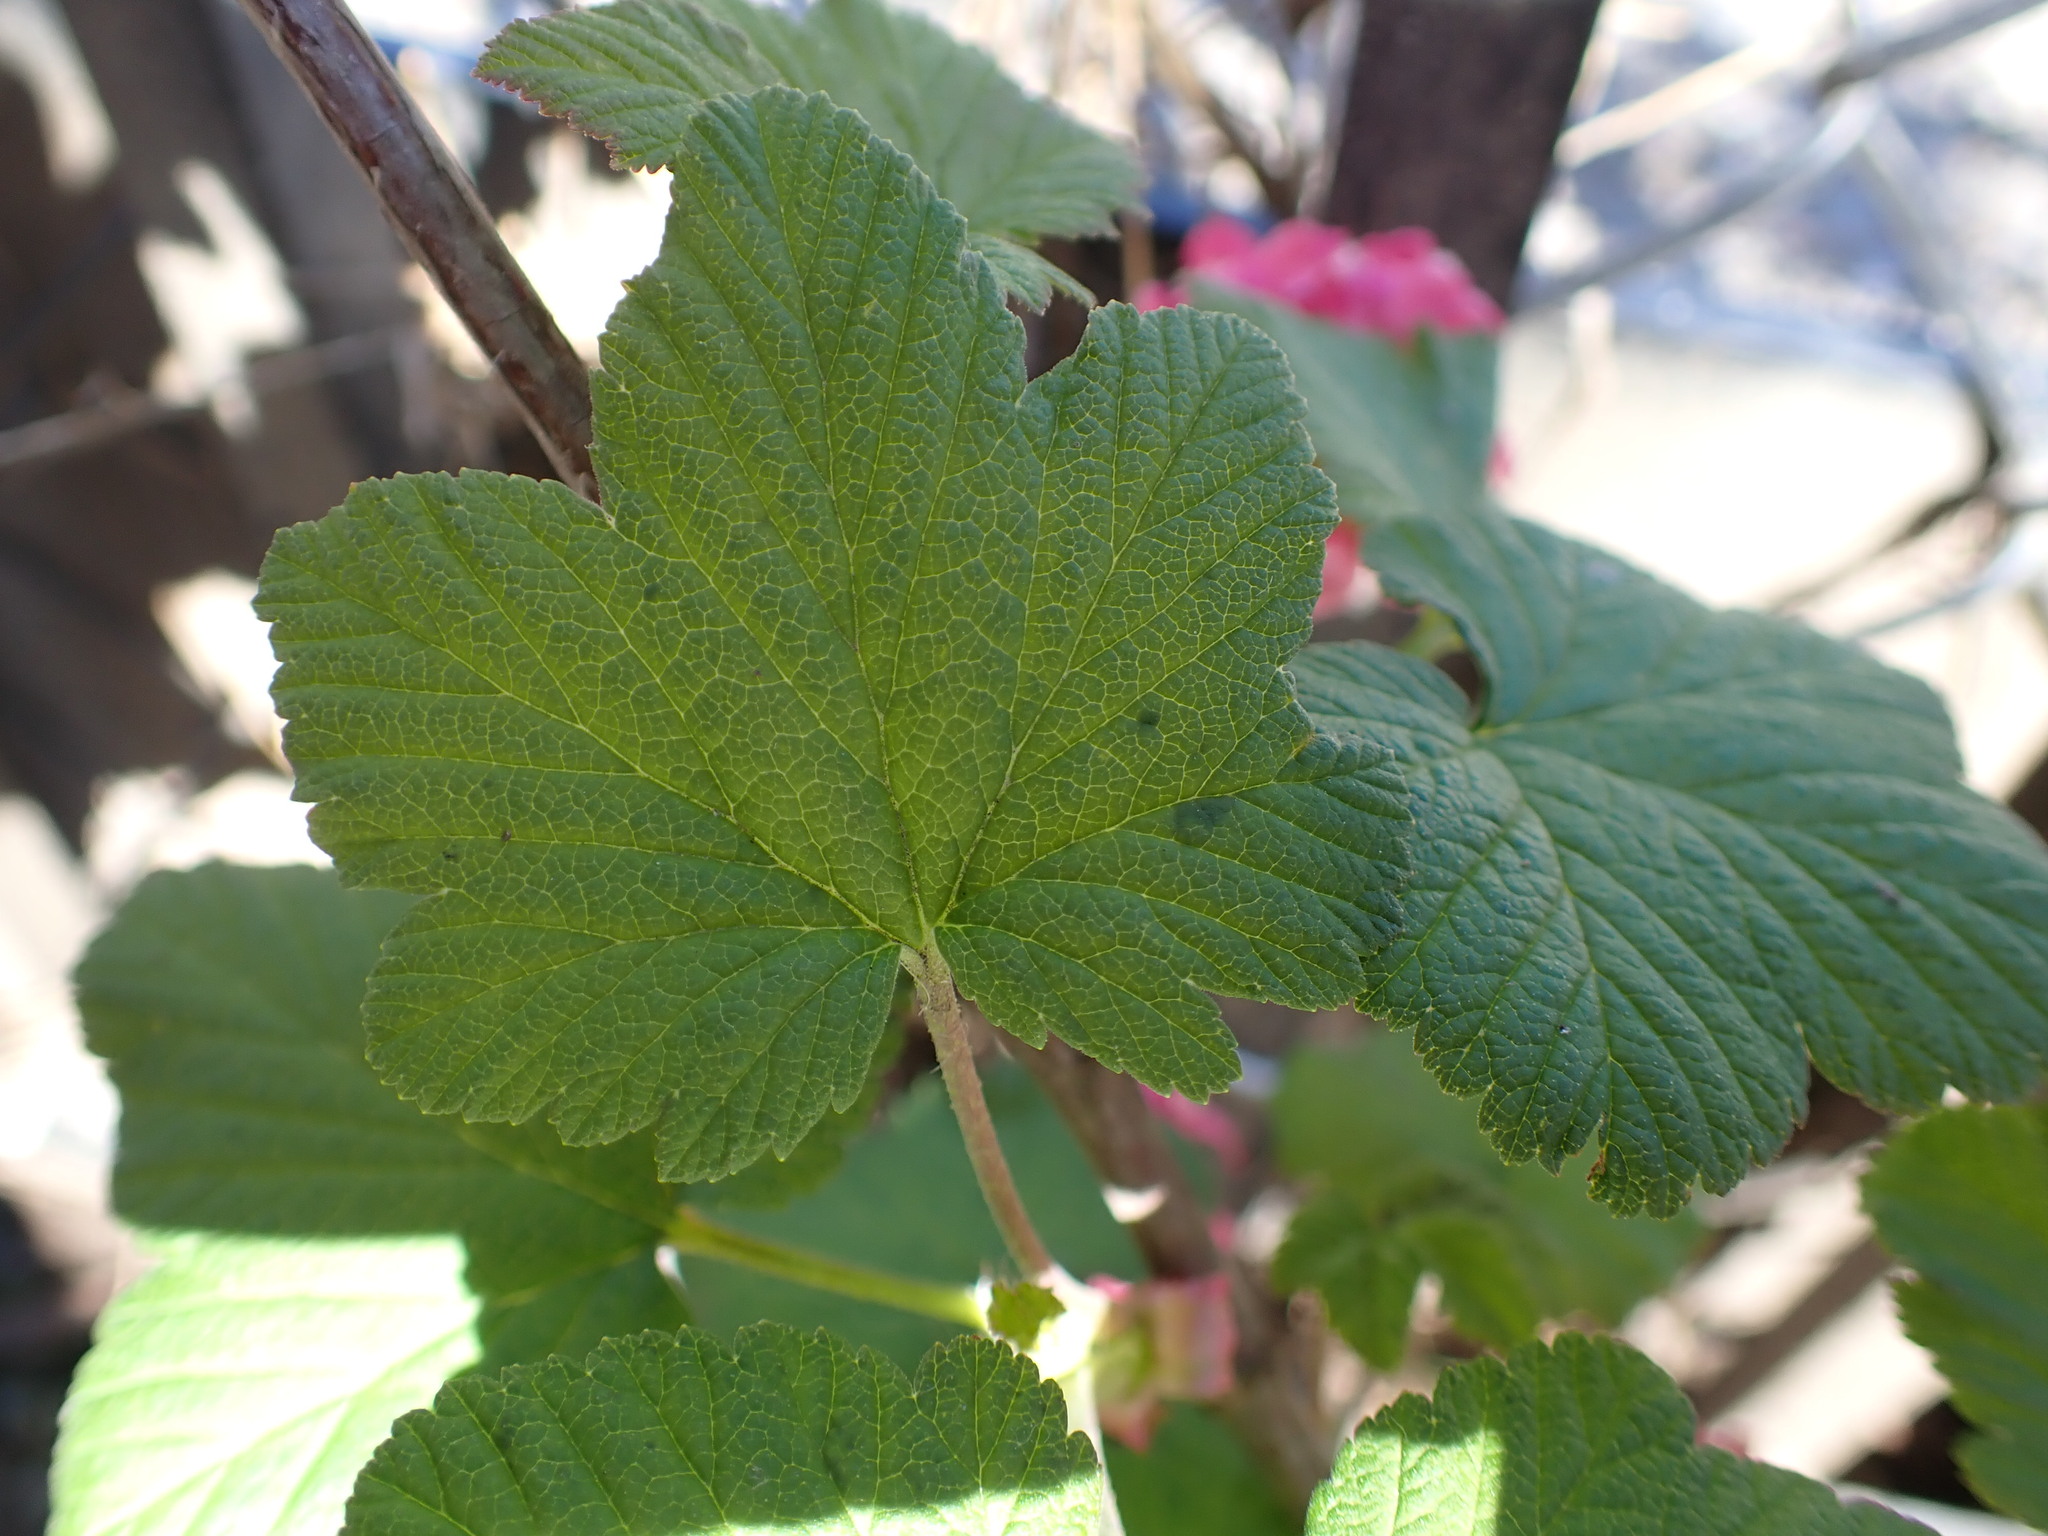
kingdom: Plantae
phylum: Tracheophyta
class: Magnoliopsida
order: Saxifragales
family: Grossulariaceae
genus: Ribes
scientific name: Ribes sanguineum
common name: Flowering currant
